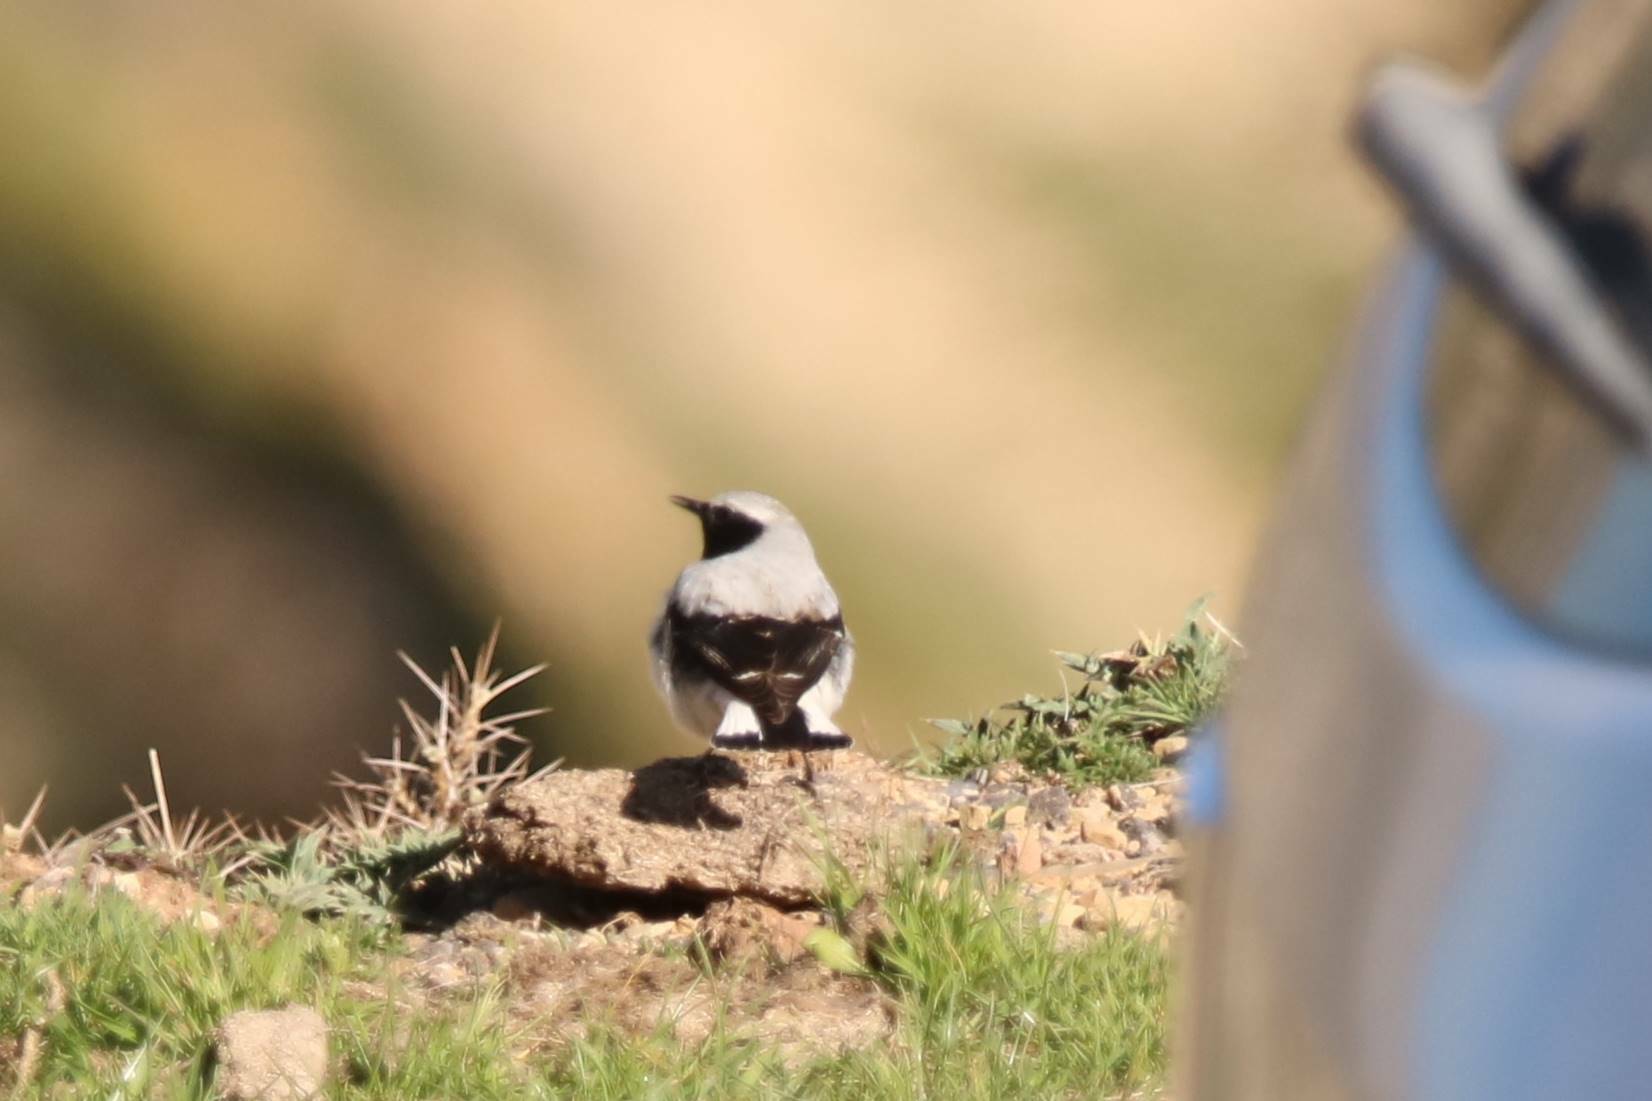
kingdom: Animalia
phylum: Chordata
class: Aves
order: Passeriformes
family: Muscicapidae
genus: Oenanthe
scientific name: Oenanthe oenanthe
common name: Northern wheatear
